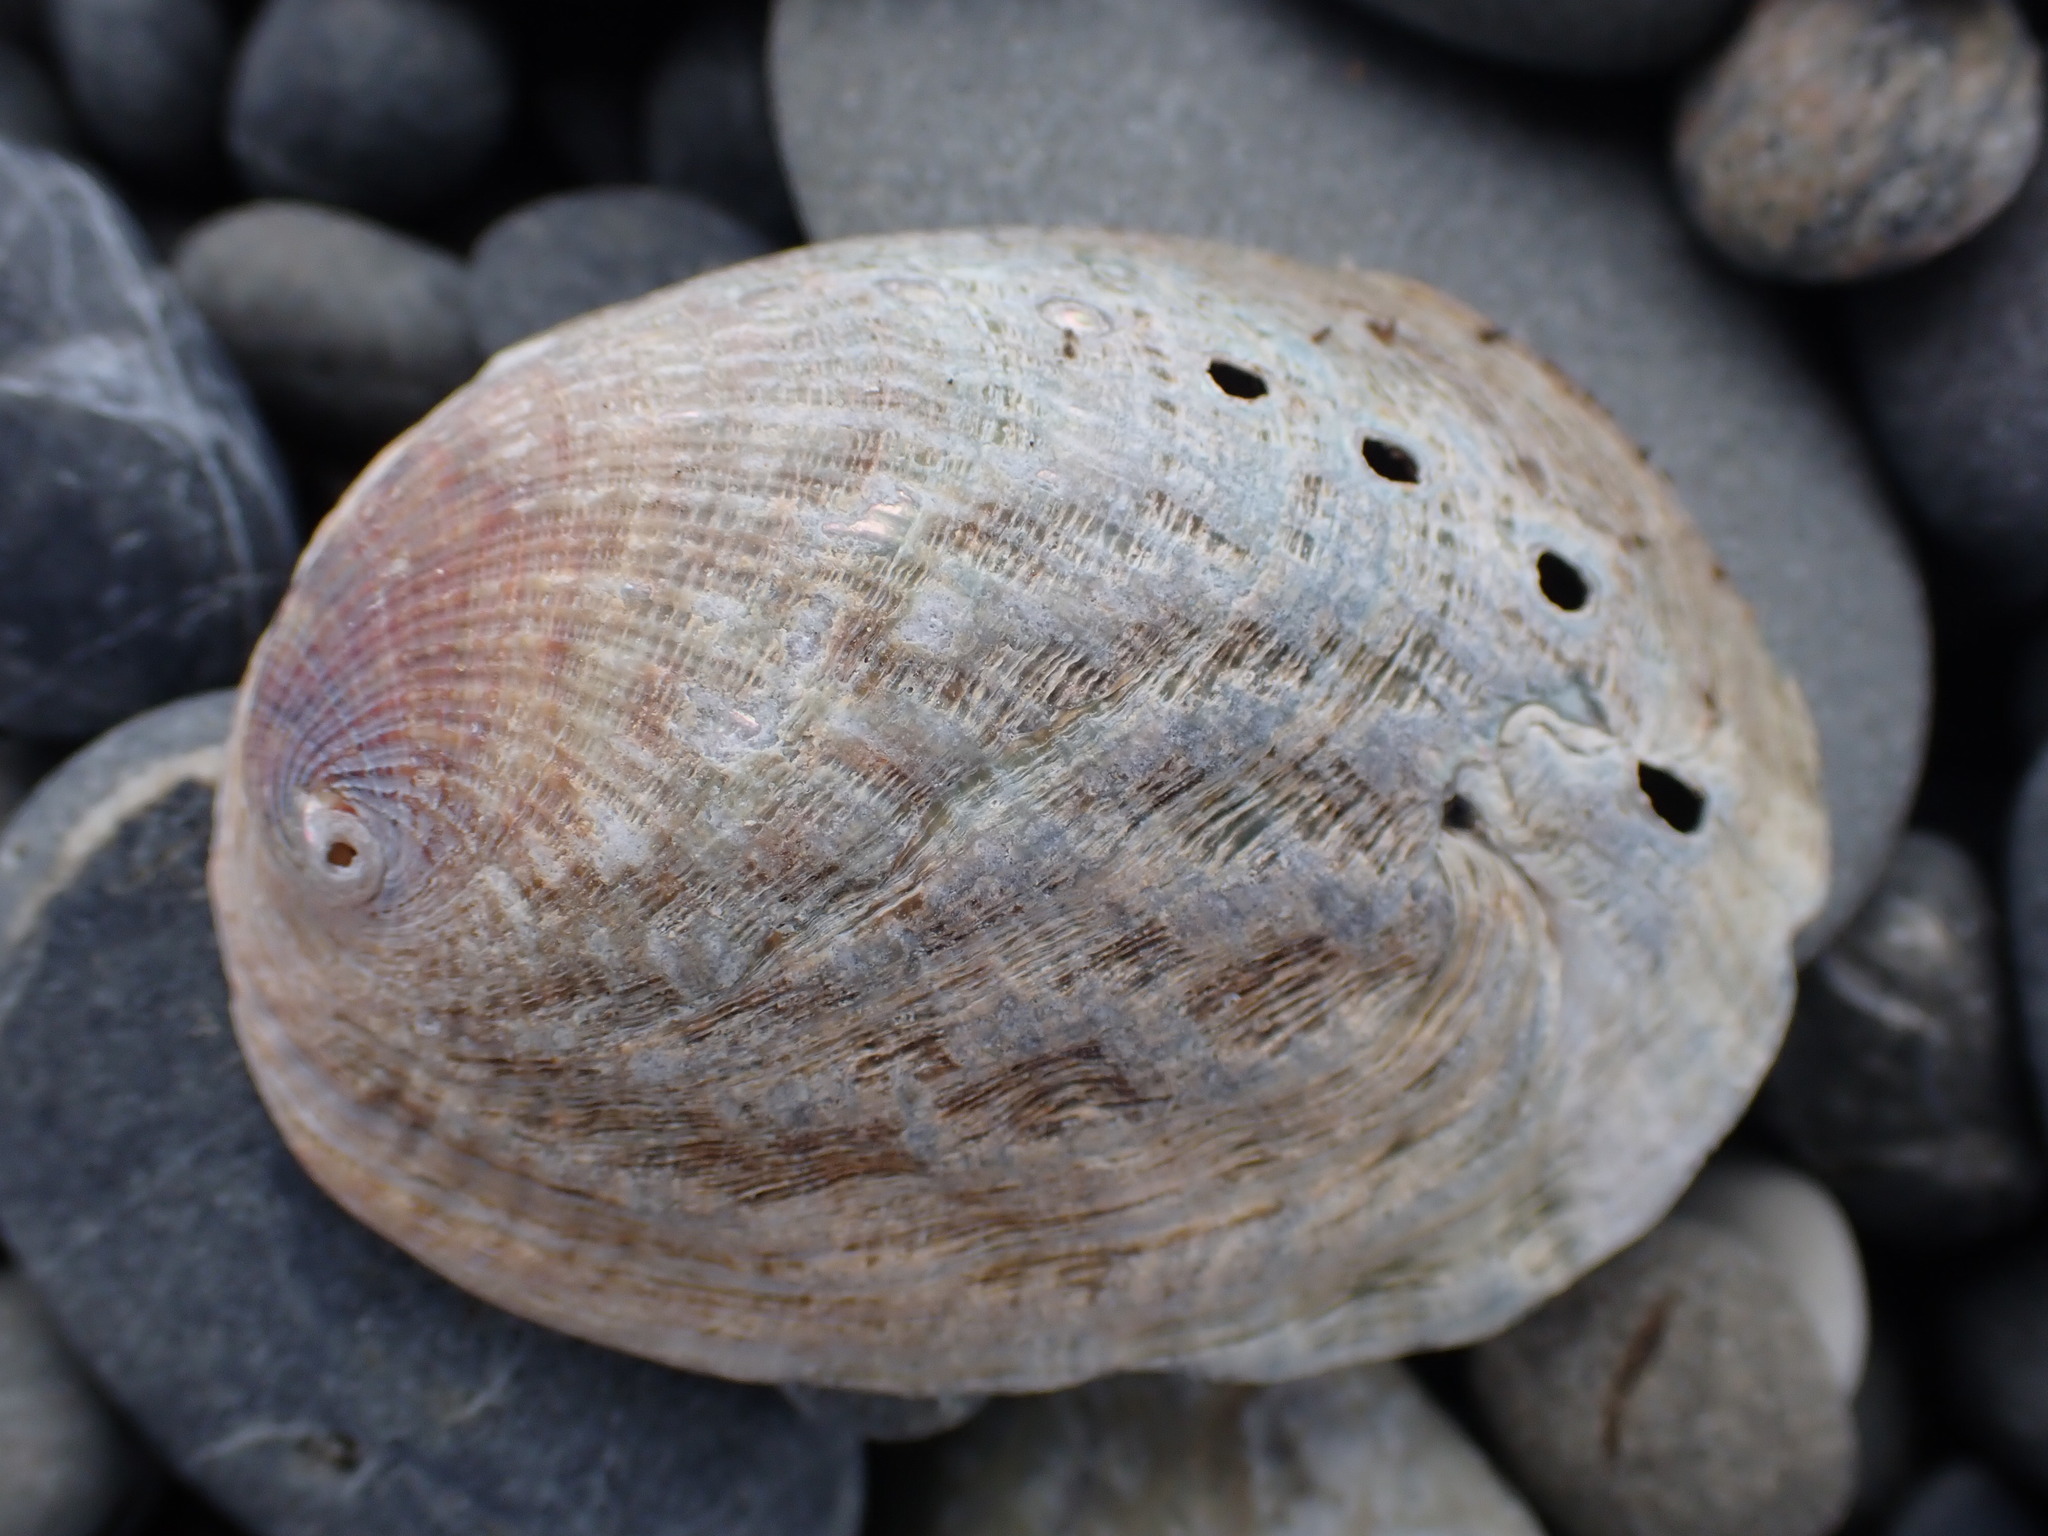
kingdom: Animalia
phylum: Mollusca
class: Gastropoda
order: Lepetellida
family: Haliotidae
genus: Haliotis
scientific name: Haliotis iris
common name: Abalone
